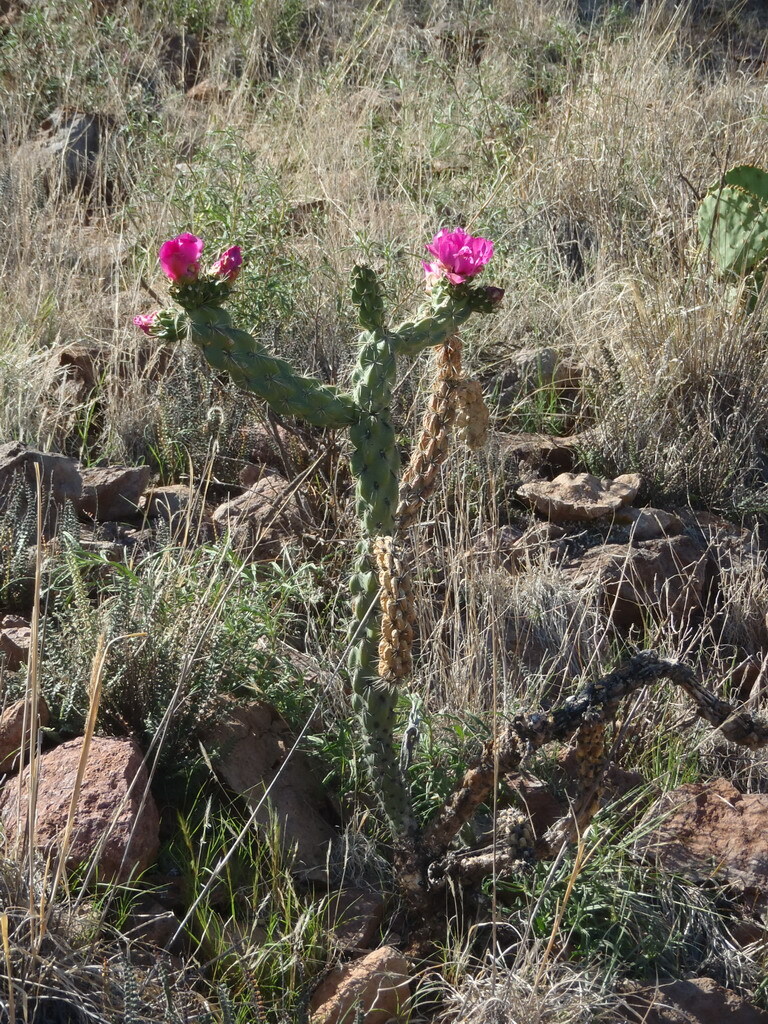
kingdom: Plantae
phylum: Tracheophyta
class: Magnoliopsida
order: Caryophyllales
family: Cactaceae
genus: Cylindropuntia
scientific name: Cylindropuntia imbricata
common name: Candelabrum cactus
